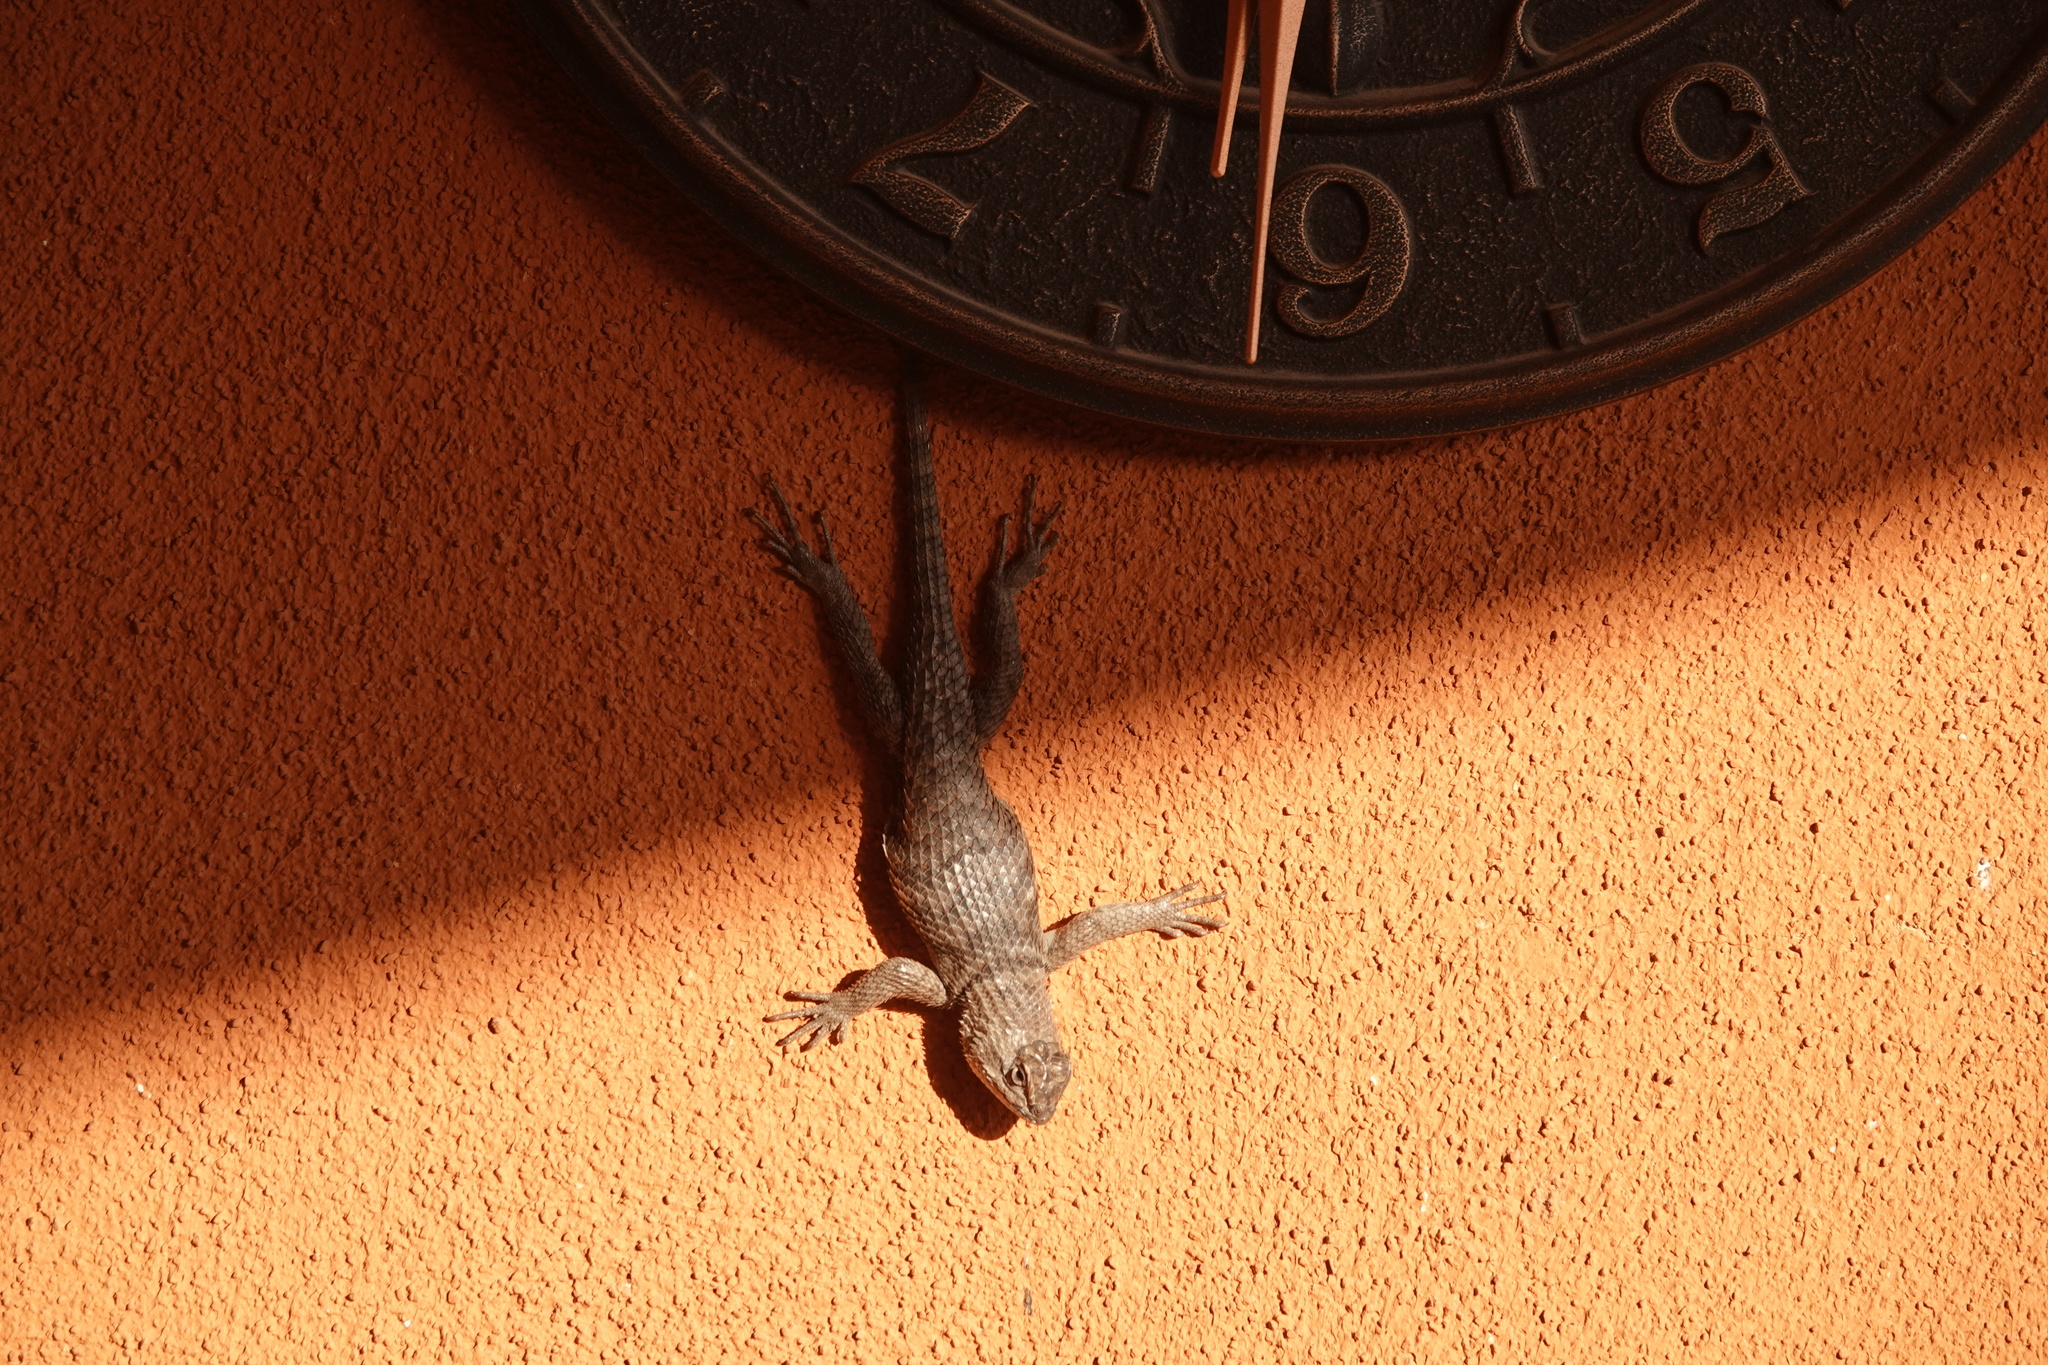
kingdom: Animalia
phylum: Chordata
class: Squamata
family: Phrynosomatidae
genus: Sceloporus
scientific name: Sceloporus uniformis
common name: Yellow-backed spiny lizard
